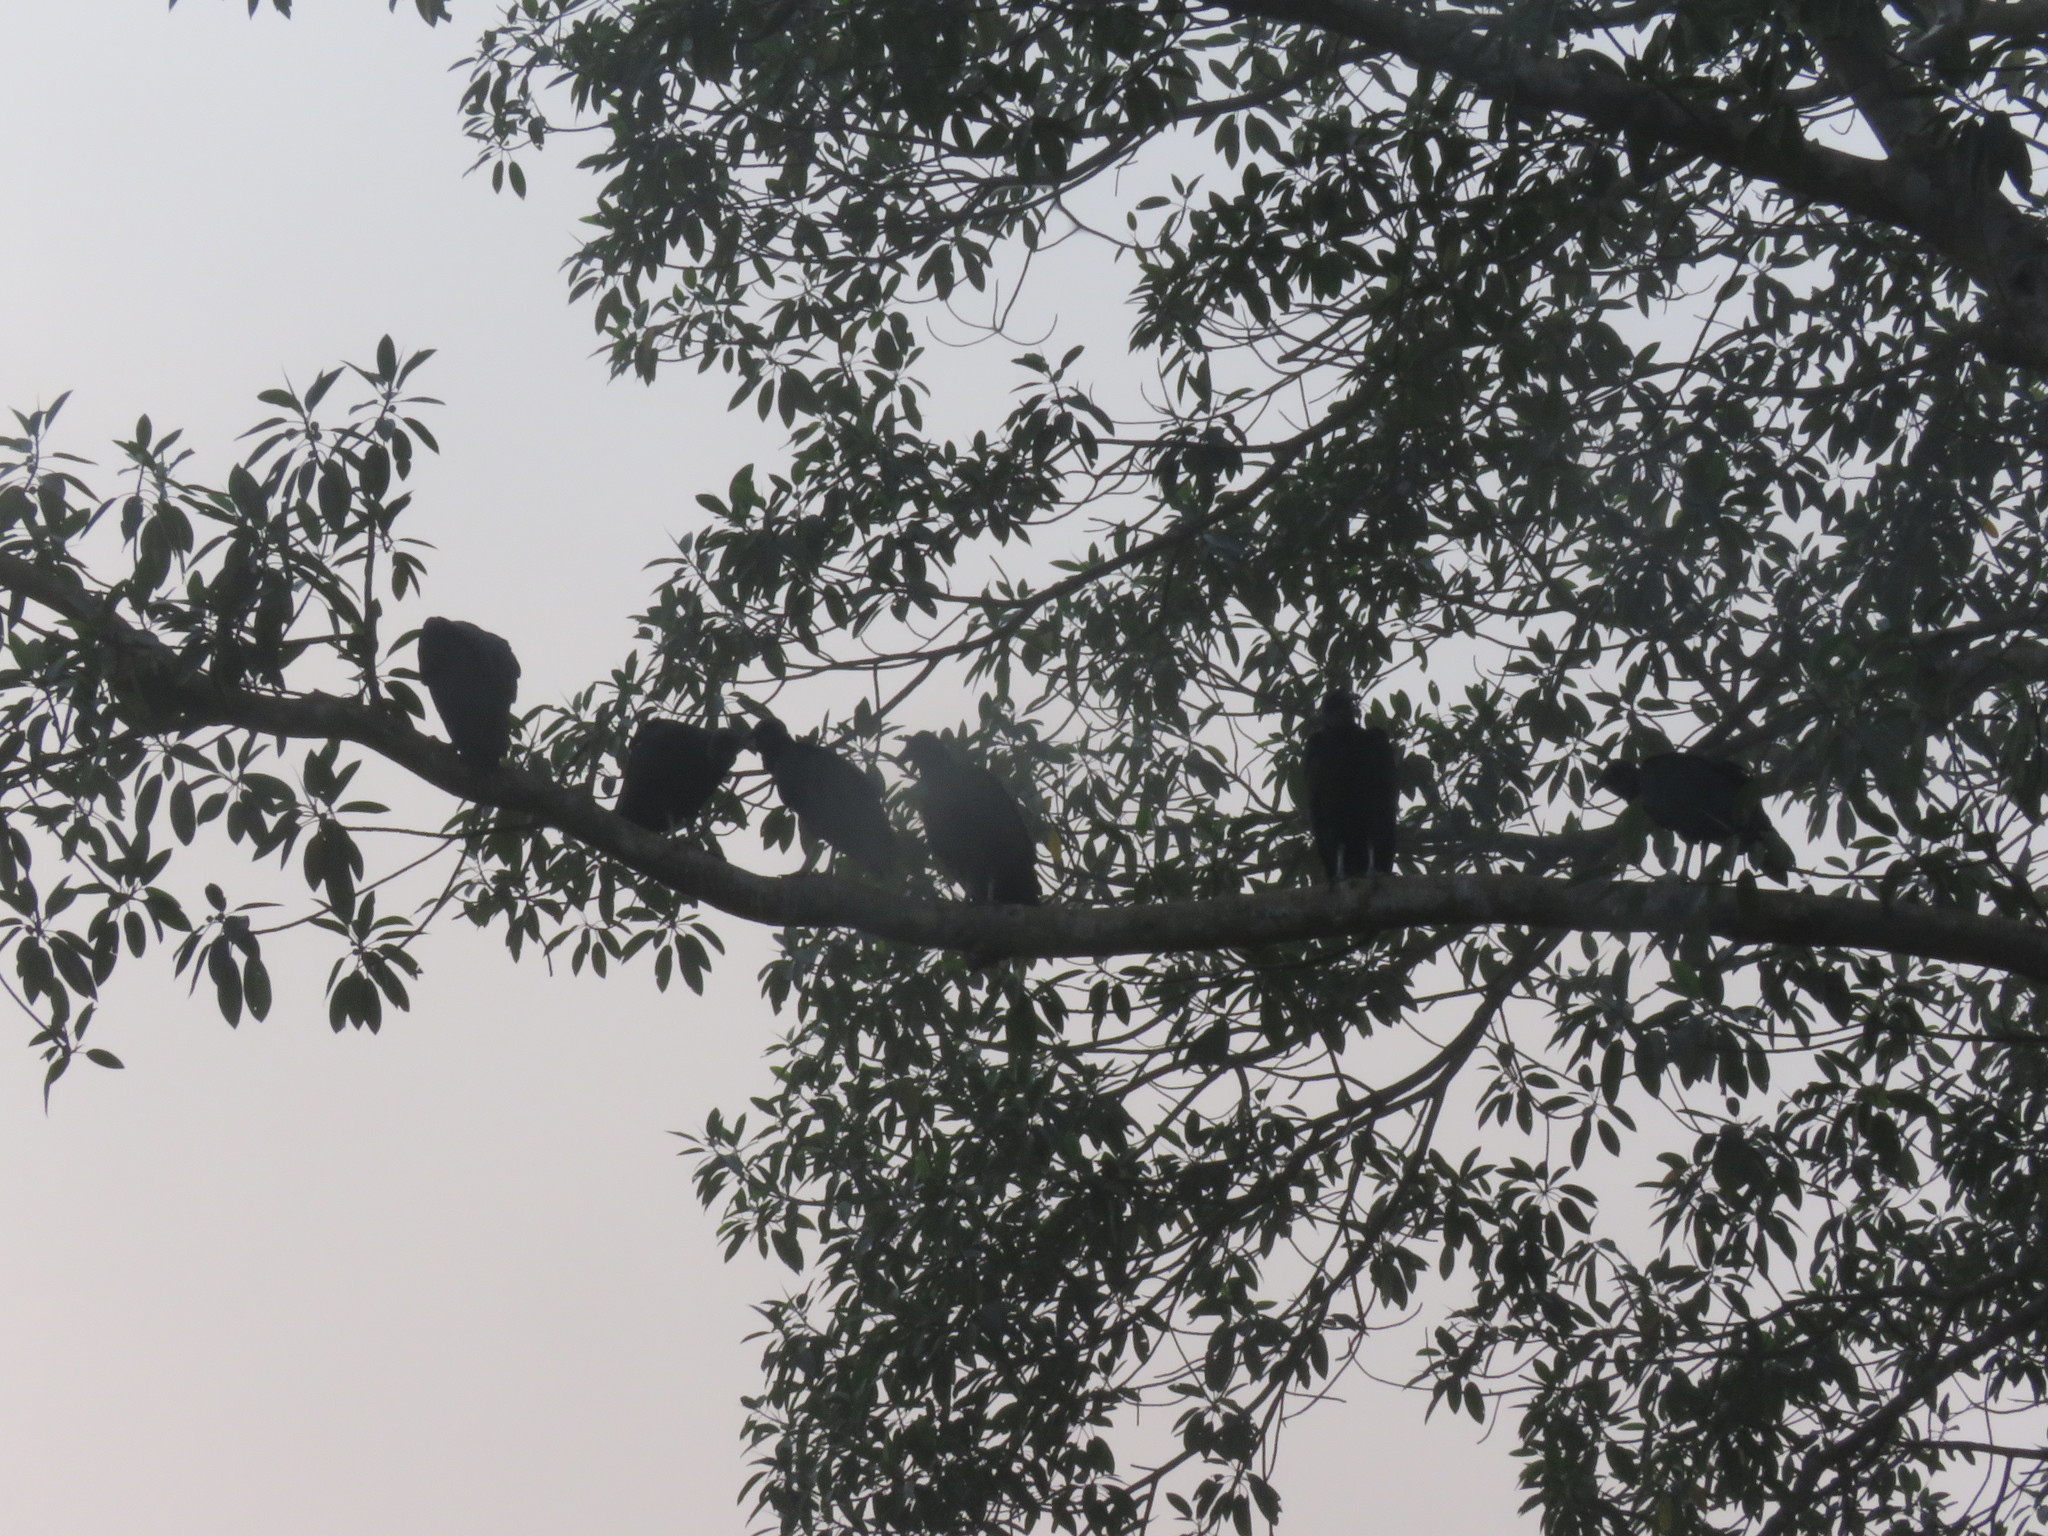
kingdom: Animalia
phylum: Chordata
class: Aves
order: Accipitriformes
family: Cathartidae
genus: Coragyps
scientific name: Coragyps atratus
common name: Black vulture
